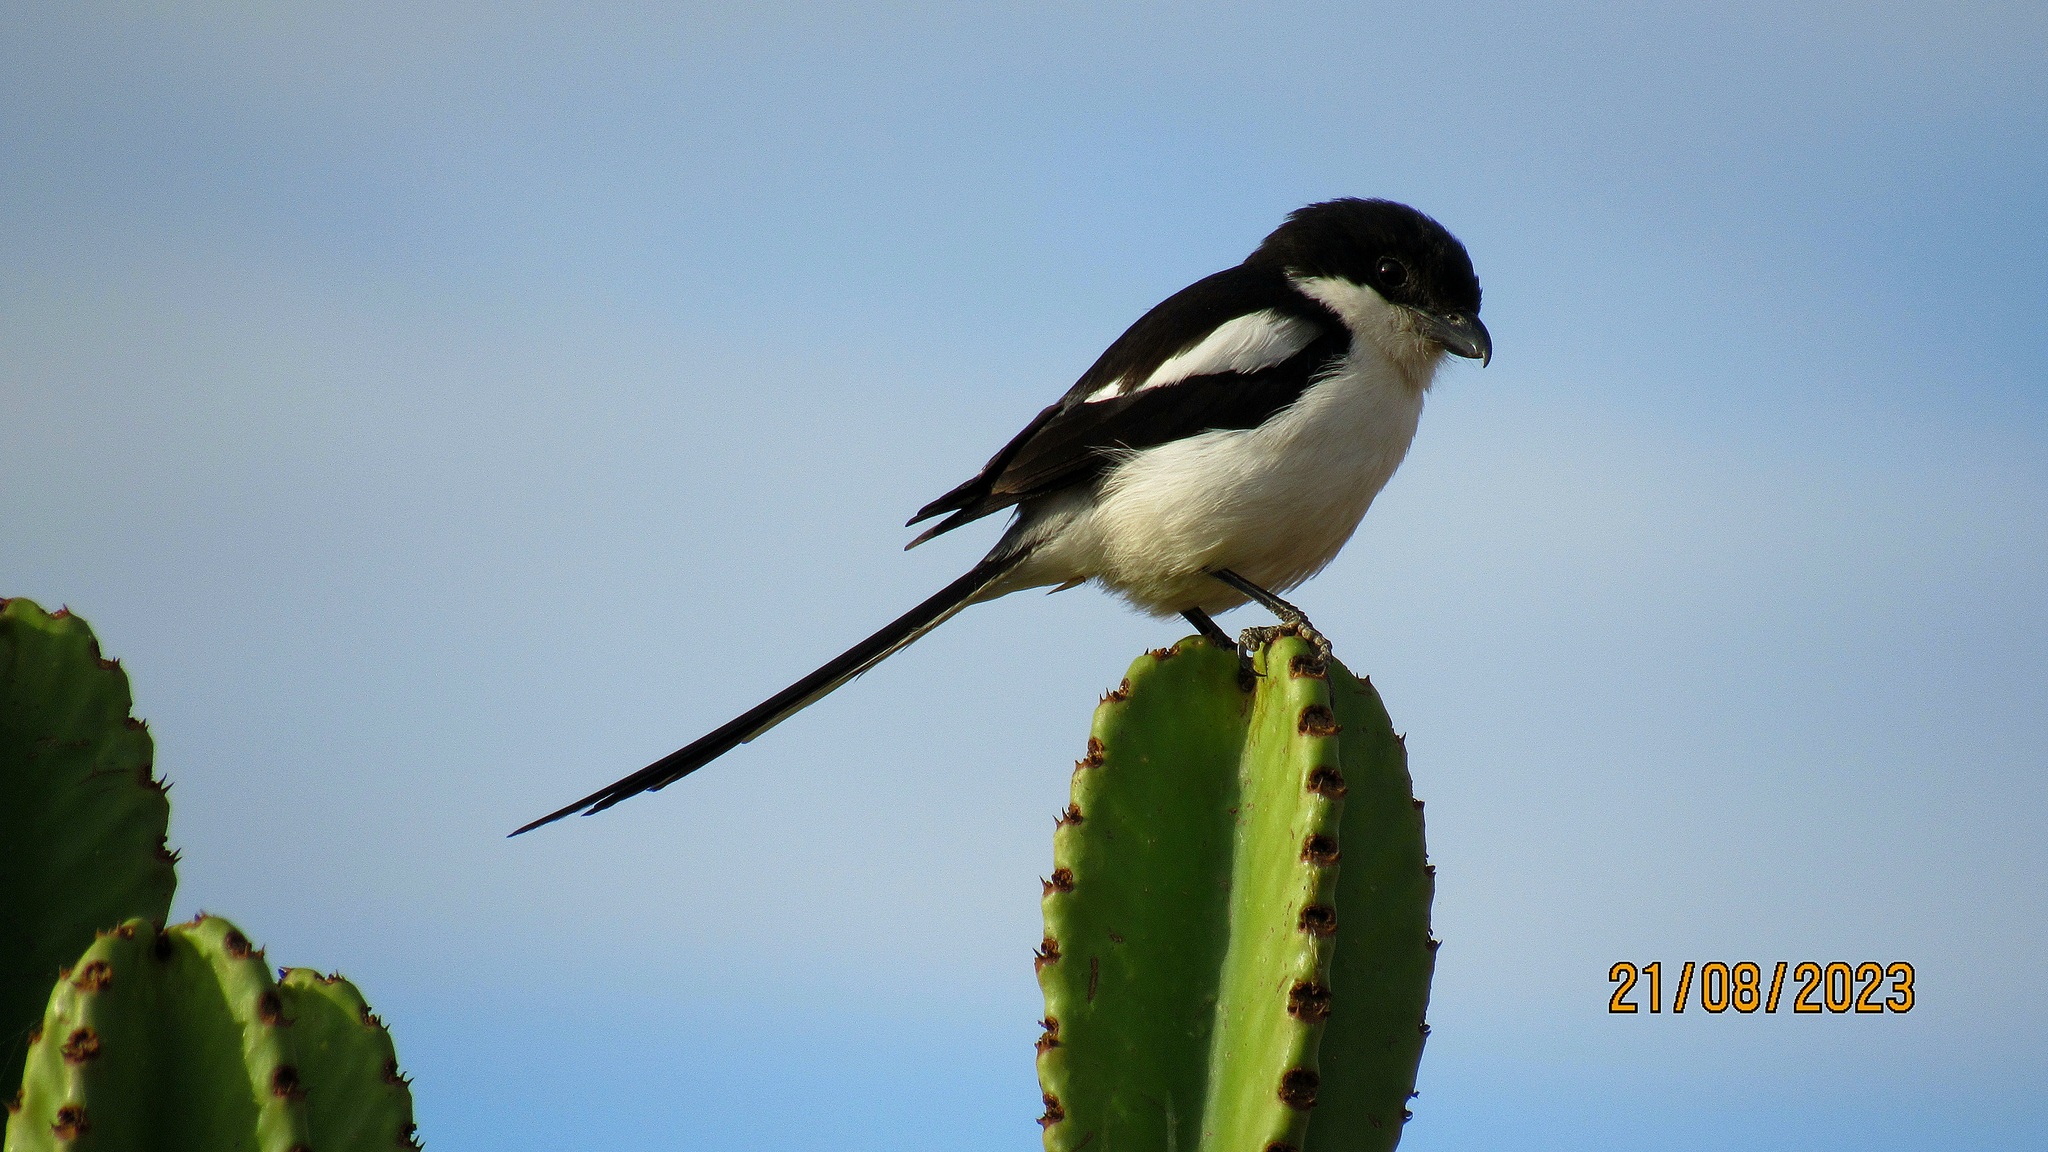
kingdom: Animalia
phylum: Chordata
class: Aves
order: Passeriformes
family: Laniidae
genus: Lanius
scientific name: Lanius humeralis
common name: Northern fiscal
